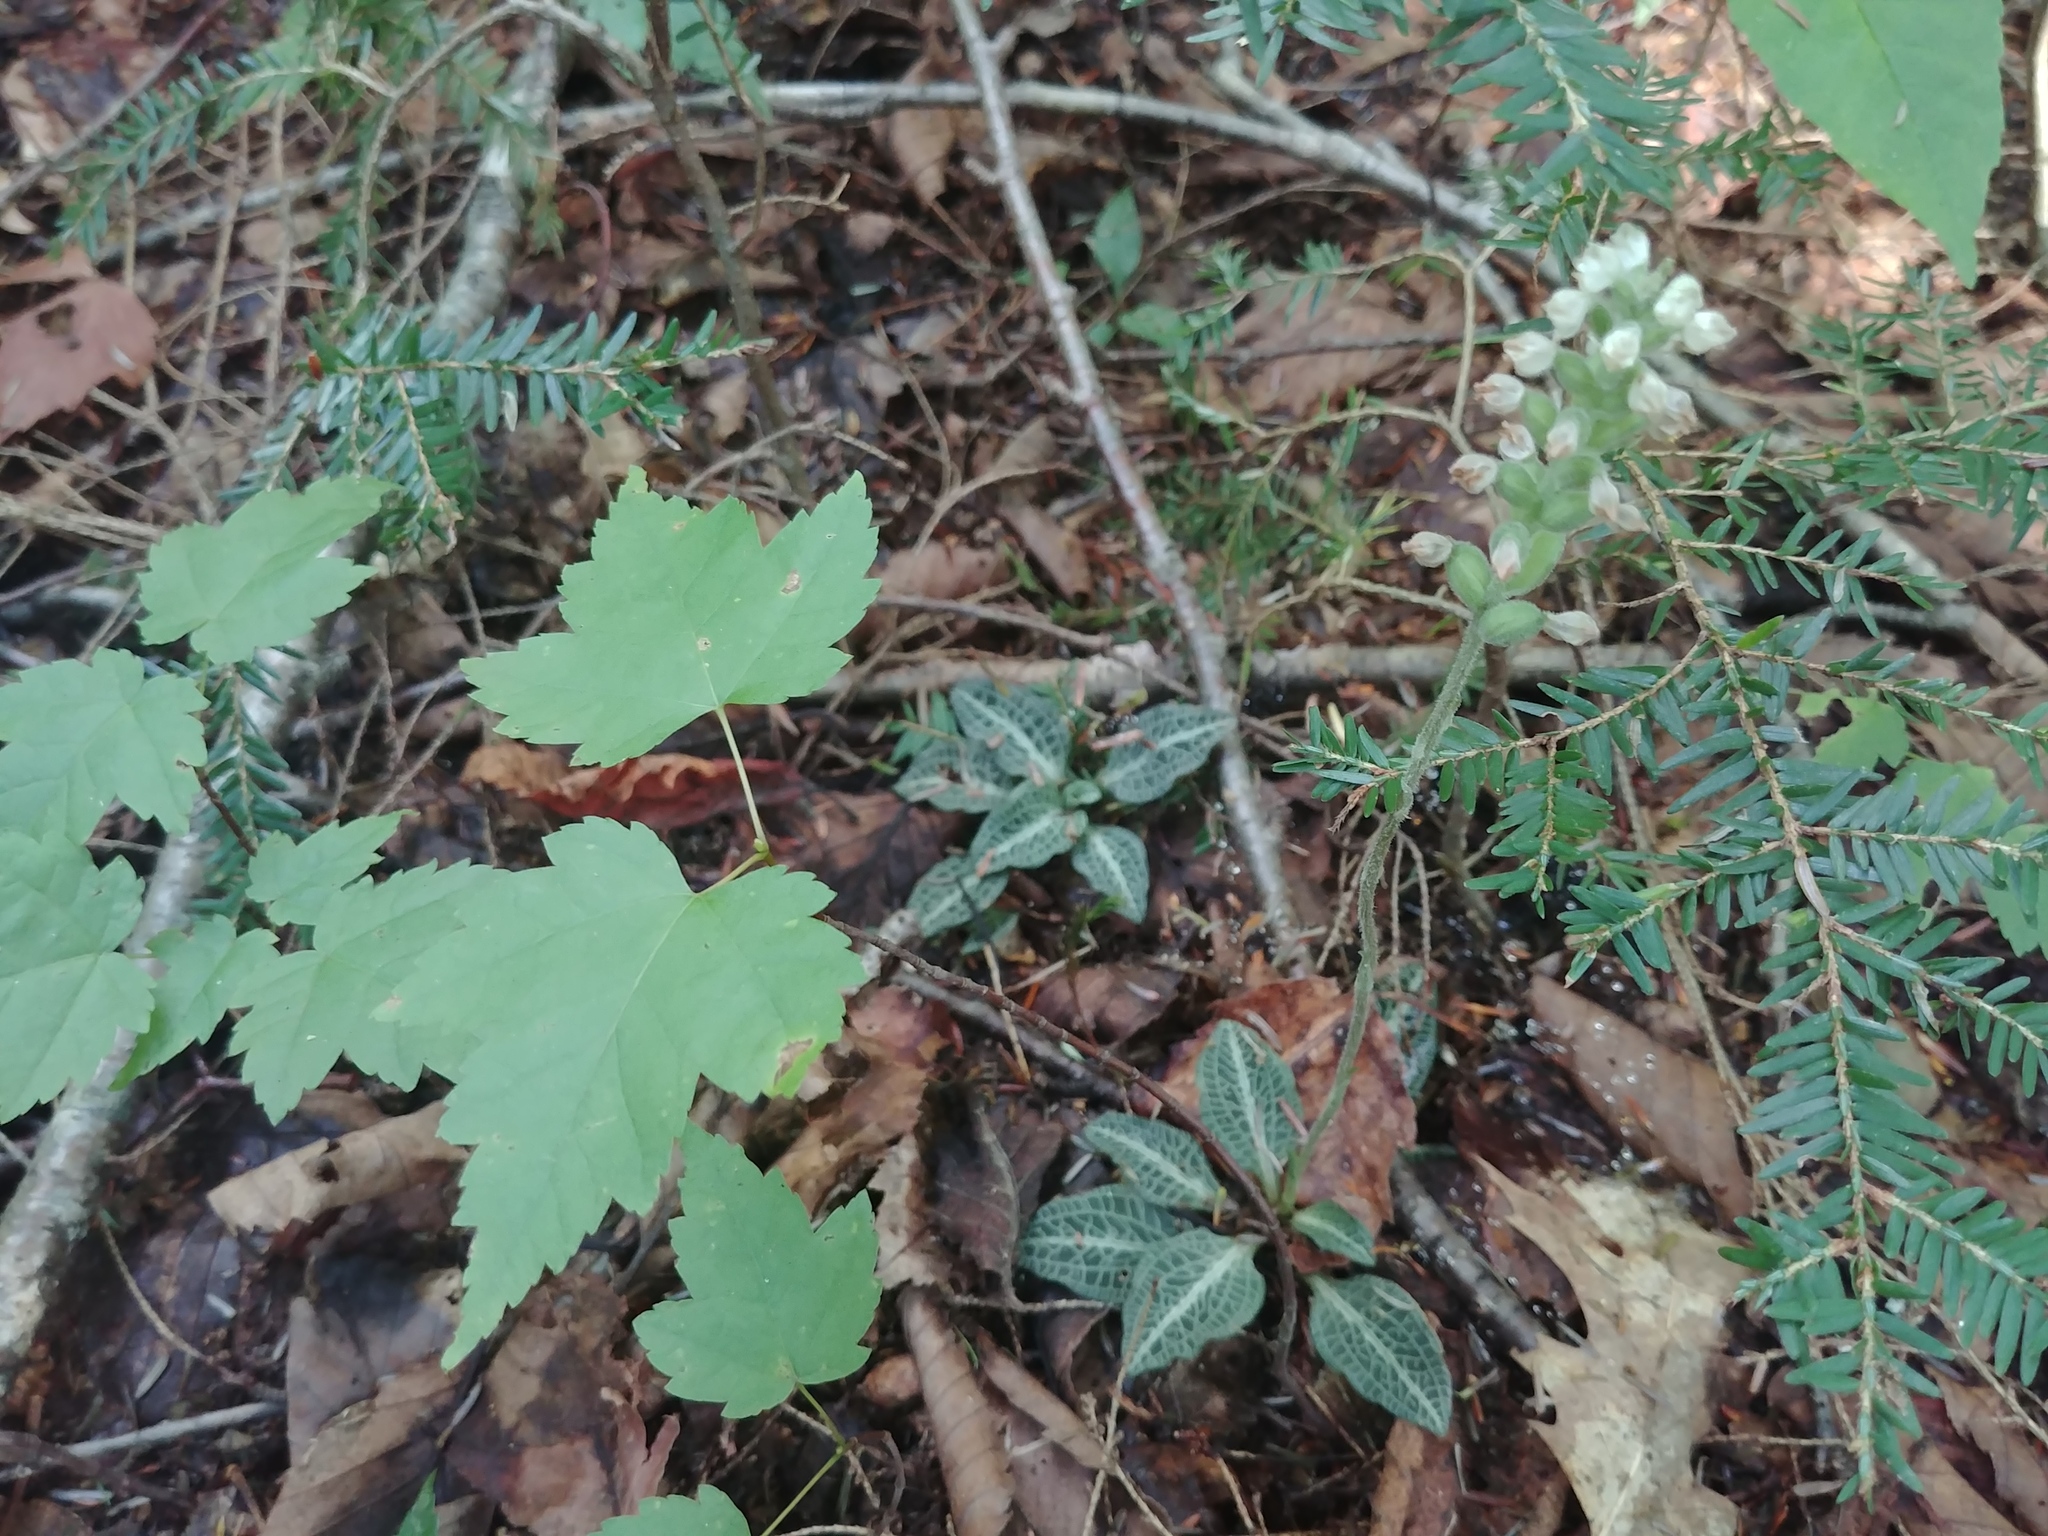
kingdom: Plantae
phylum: Tracheophyta
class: Liliopsida
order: Asparagales
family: Orchidaceae
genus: Goodyera
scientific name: Goodyera pubescens
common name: Downy rattlesnake-plantain
